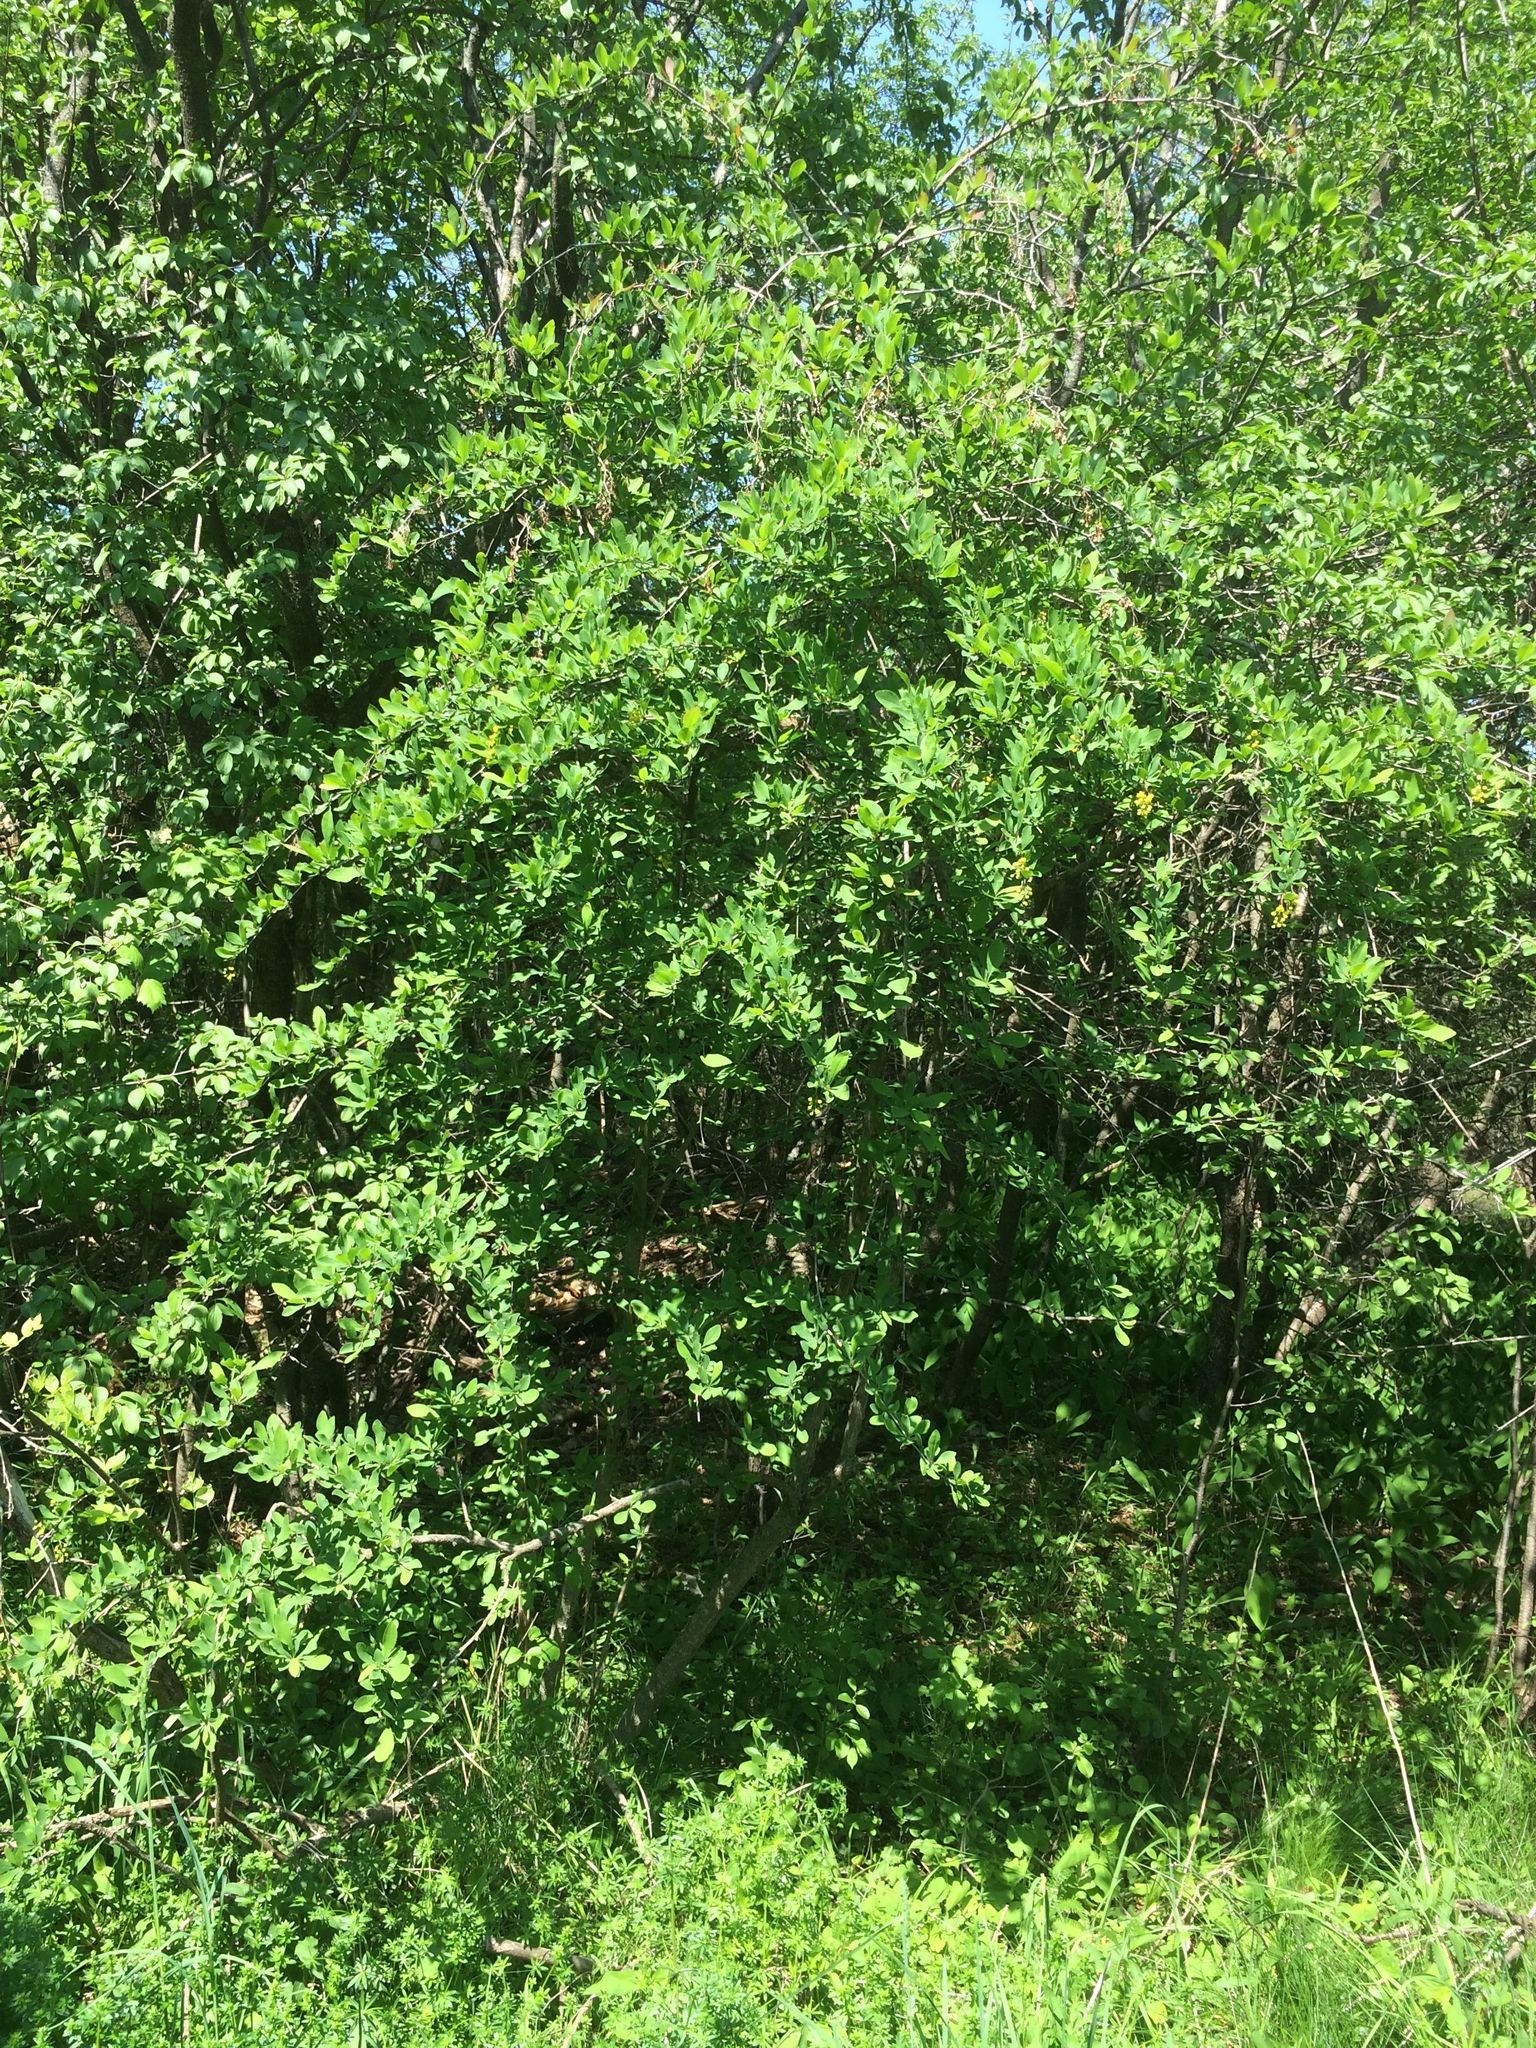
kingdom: Plantae
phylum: Tracheophyta
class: Magnoliopsida
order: Ranunculales
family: Berberidaceae
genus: Berberis
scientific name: Berberis vulgaris
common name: Barberry
